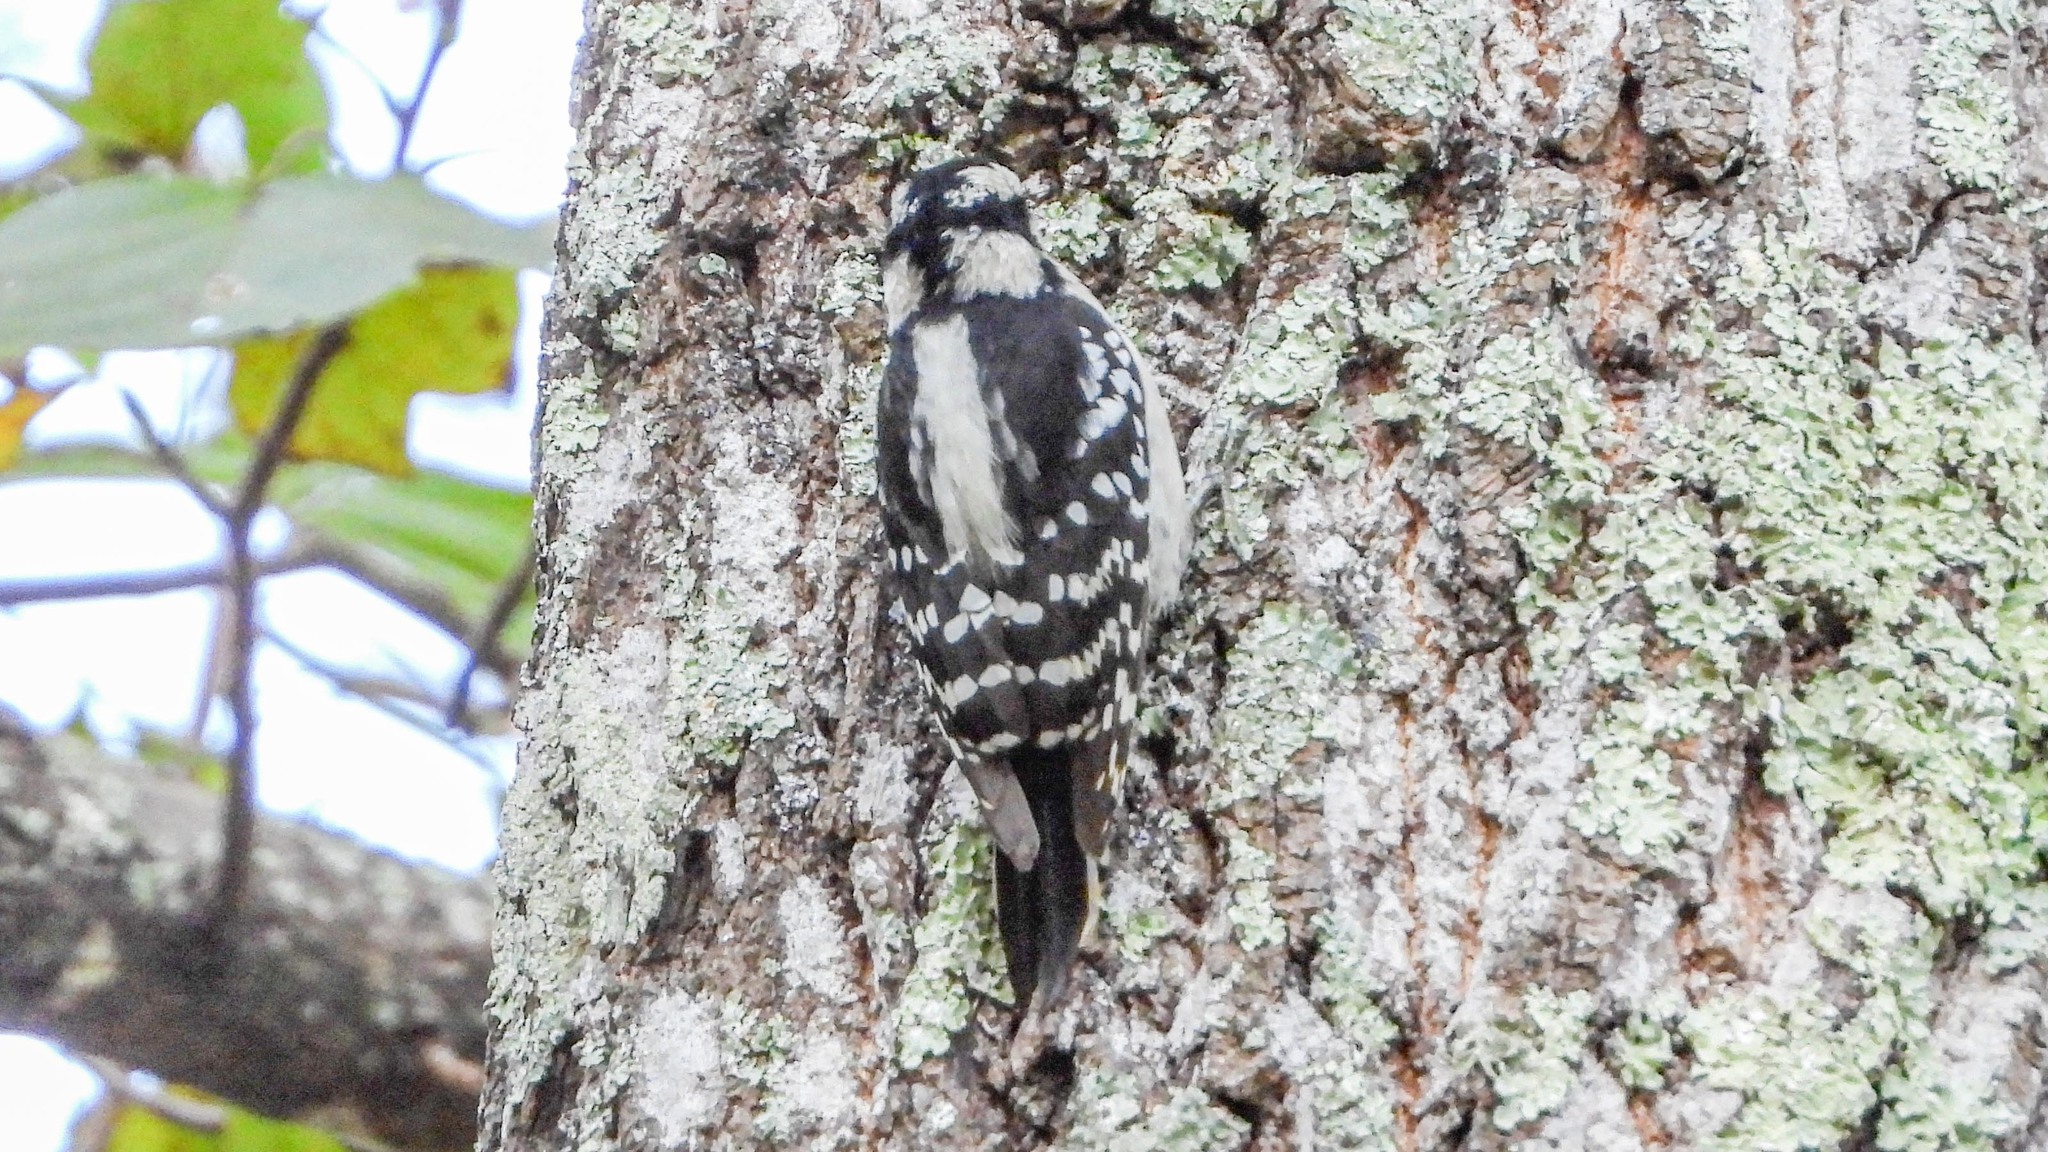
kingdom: Animalia
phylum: Chordata
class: Aves
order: Piciformes
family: Picidae
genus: Dryobates
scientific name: Dryobates pubescens
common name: Downy woodpecker
